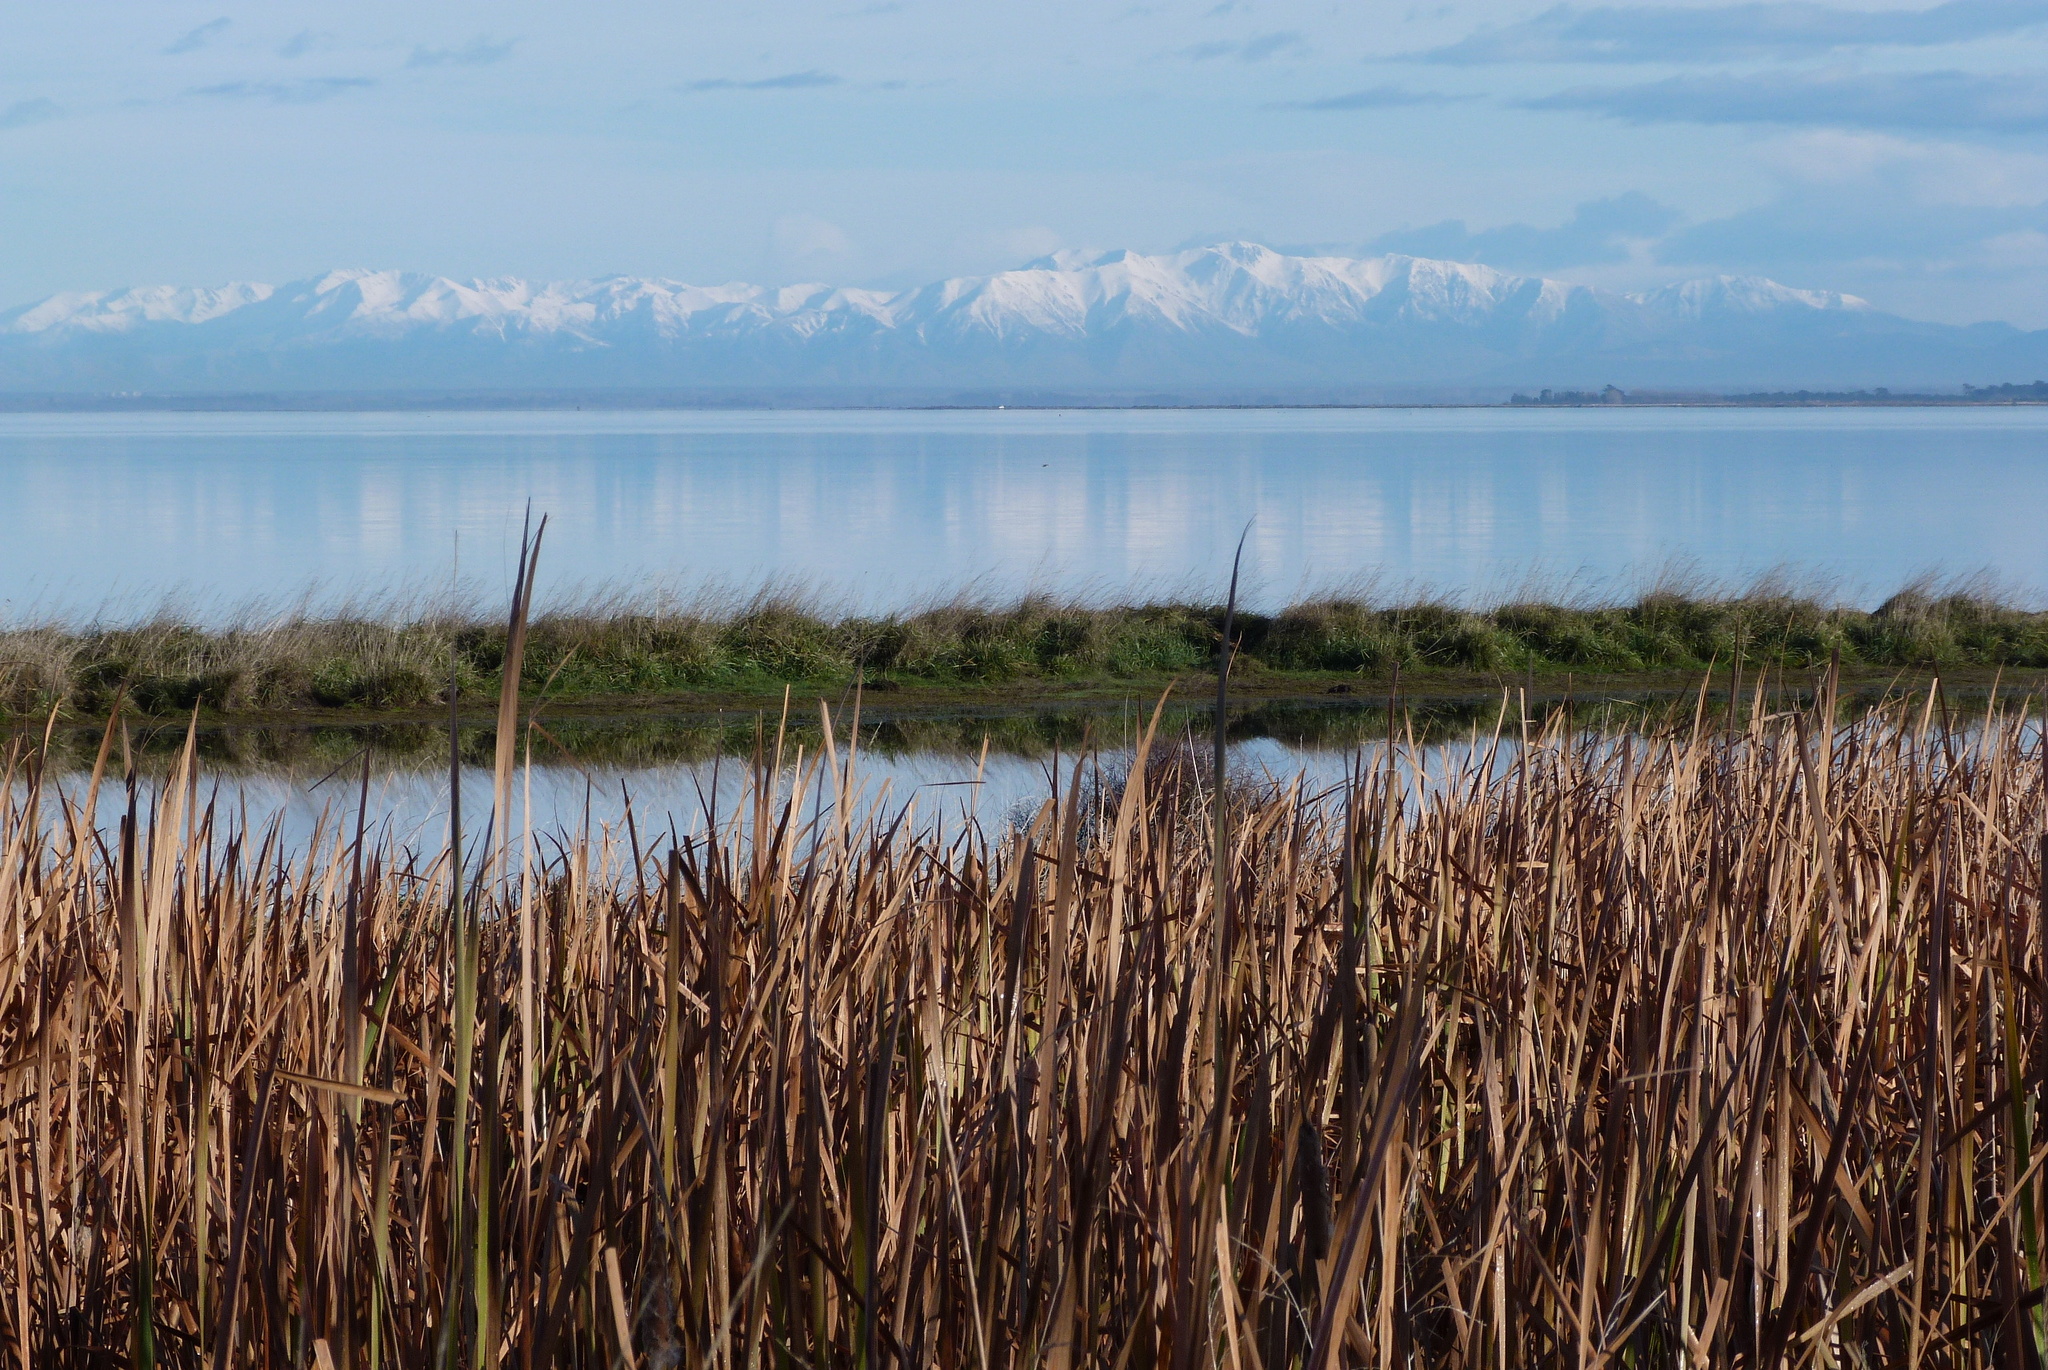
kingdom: Plantae
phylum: Tracheophyta
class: Liliopsida
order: Poales
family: Typhaceae
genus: Typha
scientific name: Typha orientalis
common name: Bullrush
